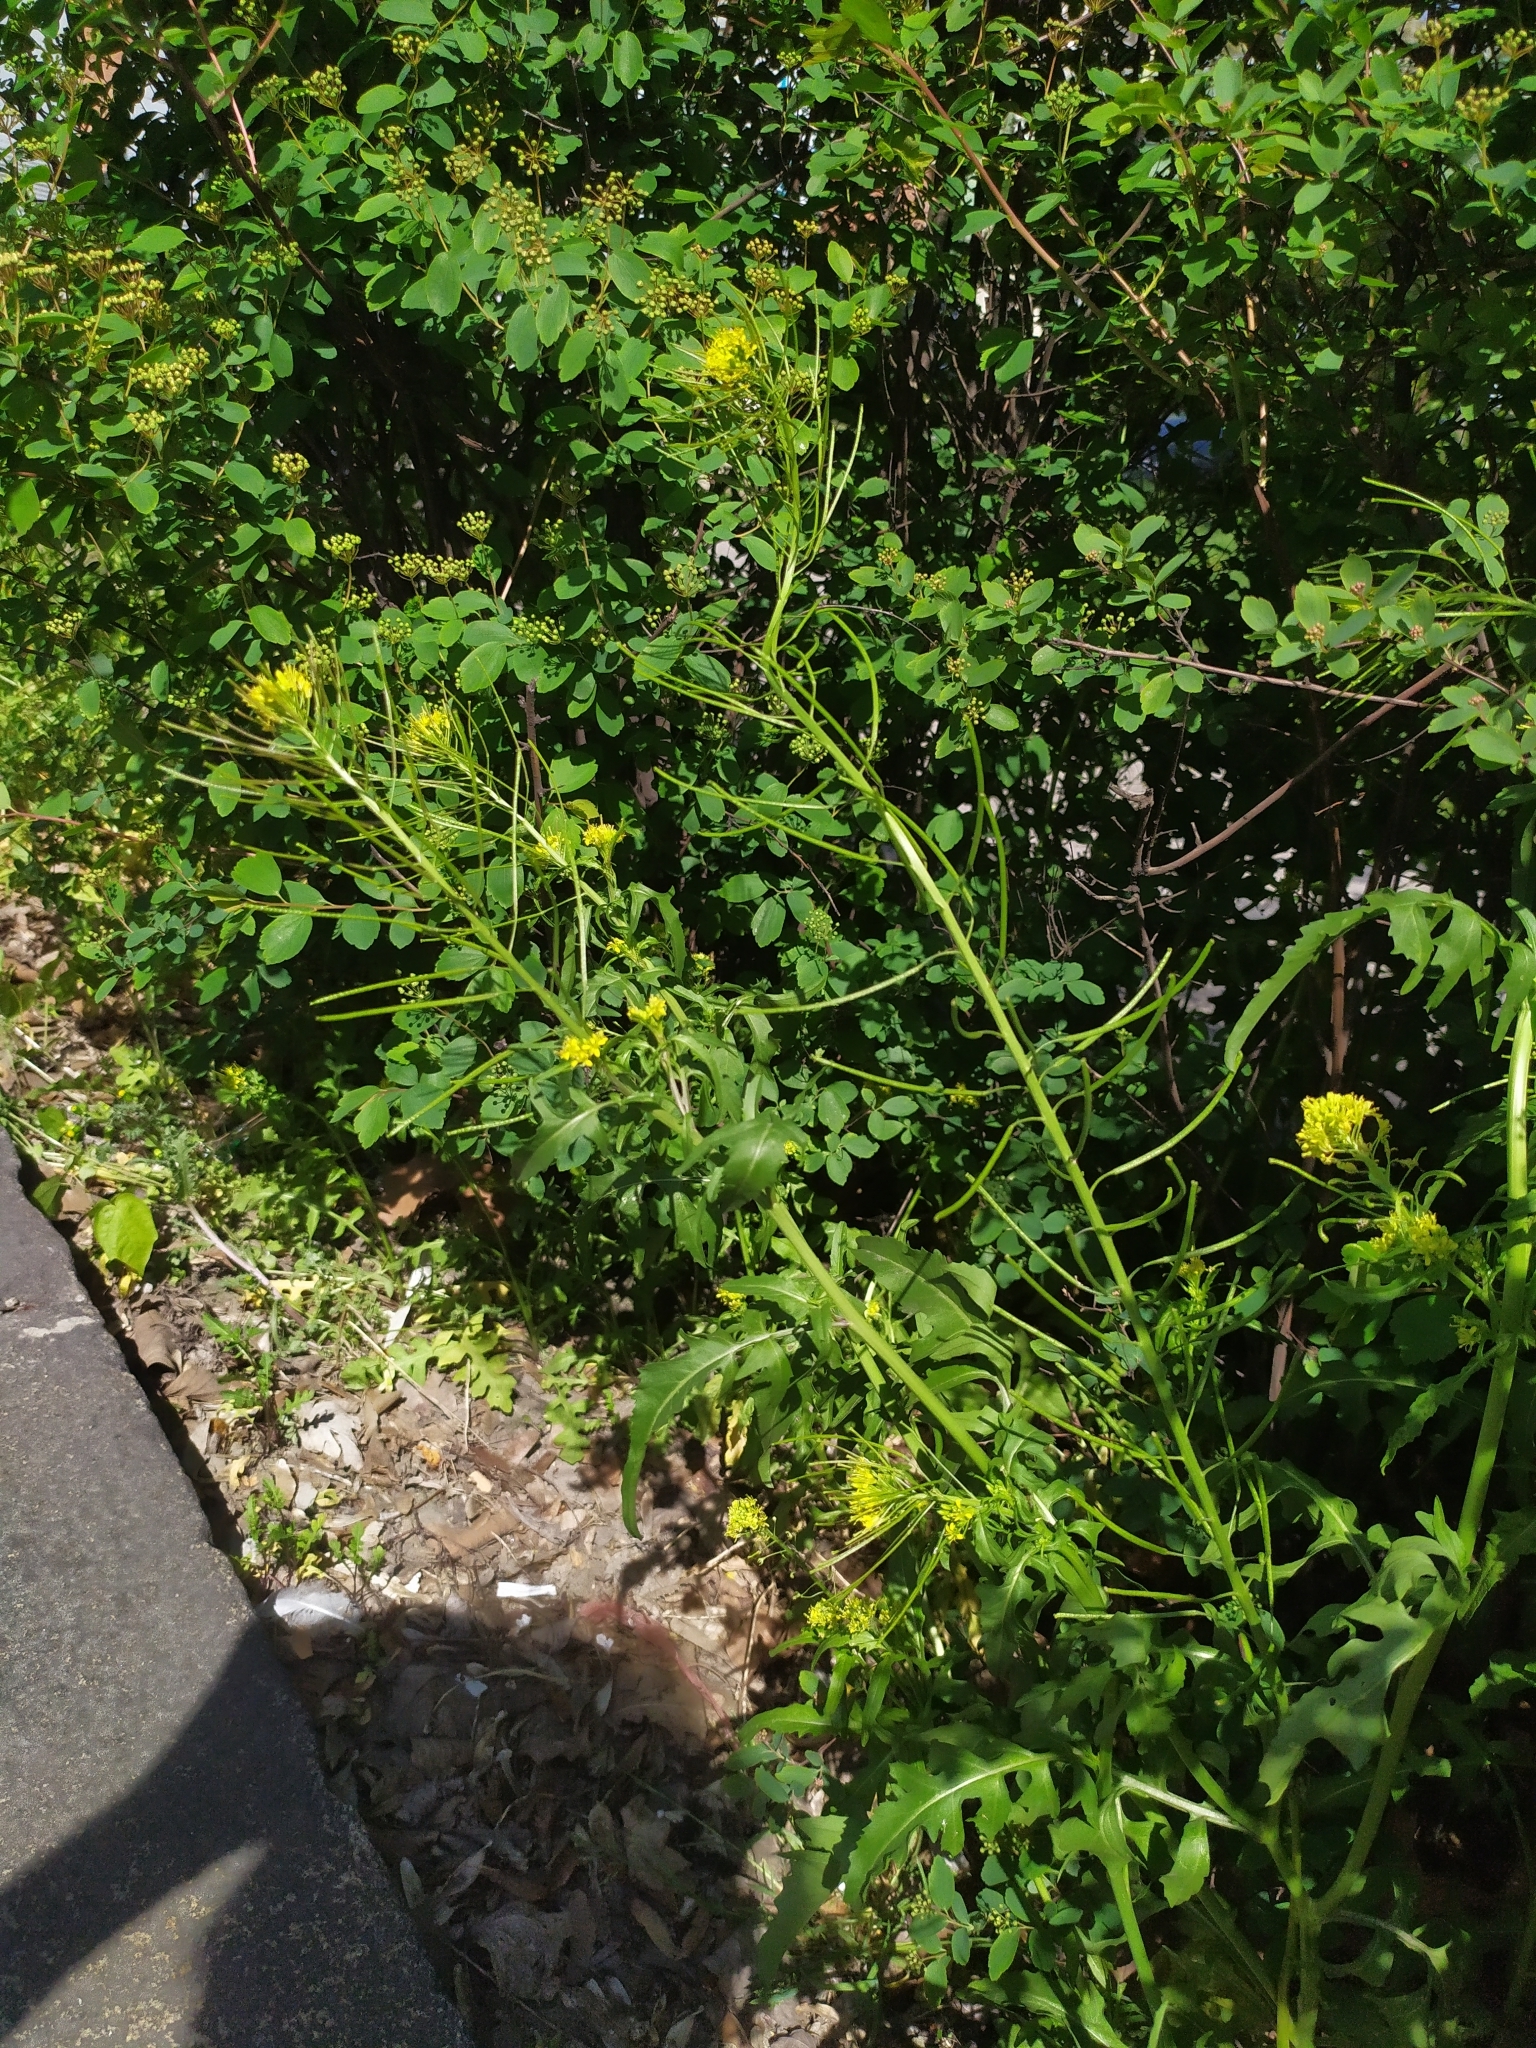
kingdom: Plantae
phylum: Tracheophyta
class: Magnoliopsida
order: Brassicales
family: Brassicaceae
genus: Sisymbrium
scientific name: Sisymbrium irio
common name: London rocket
